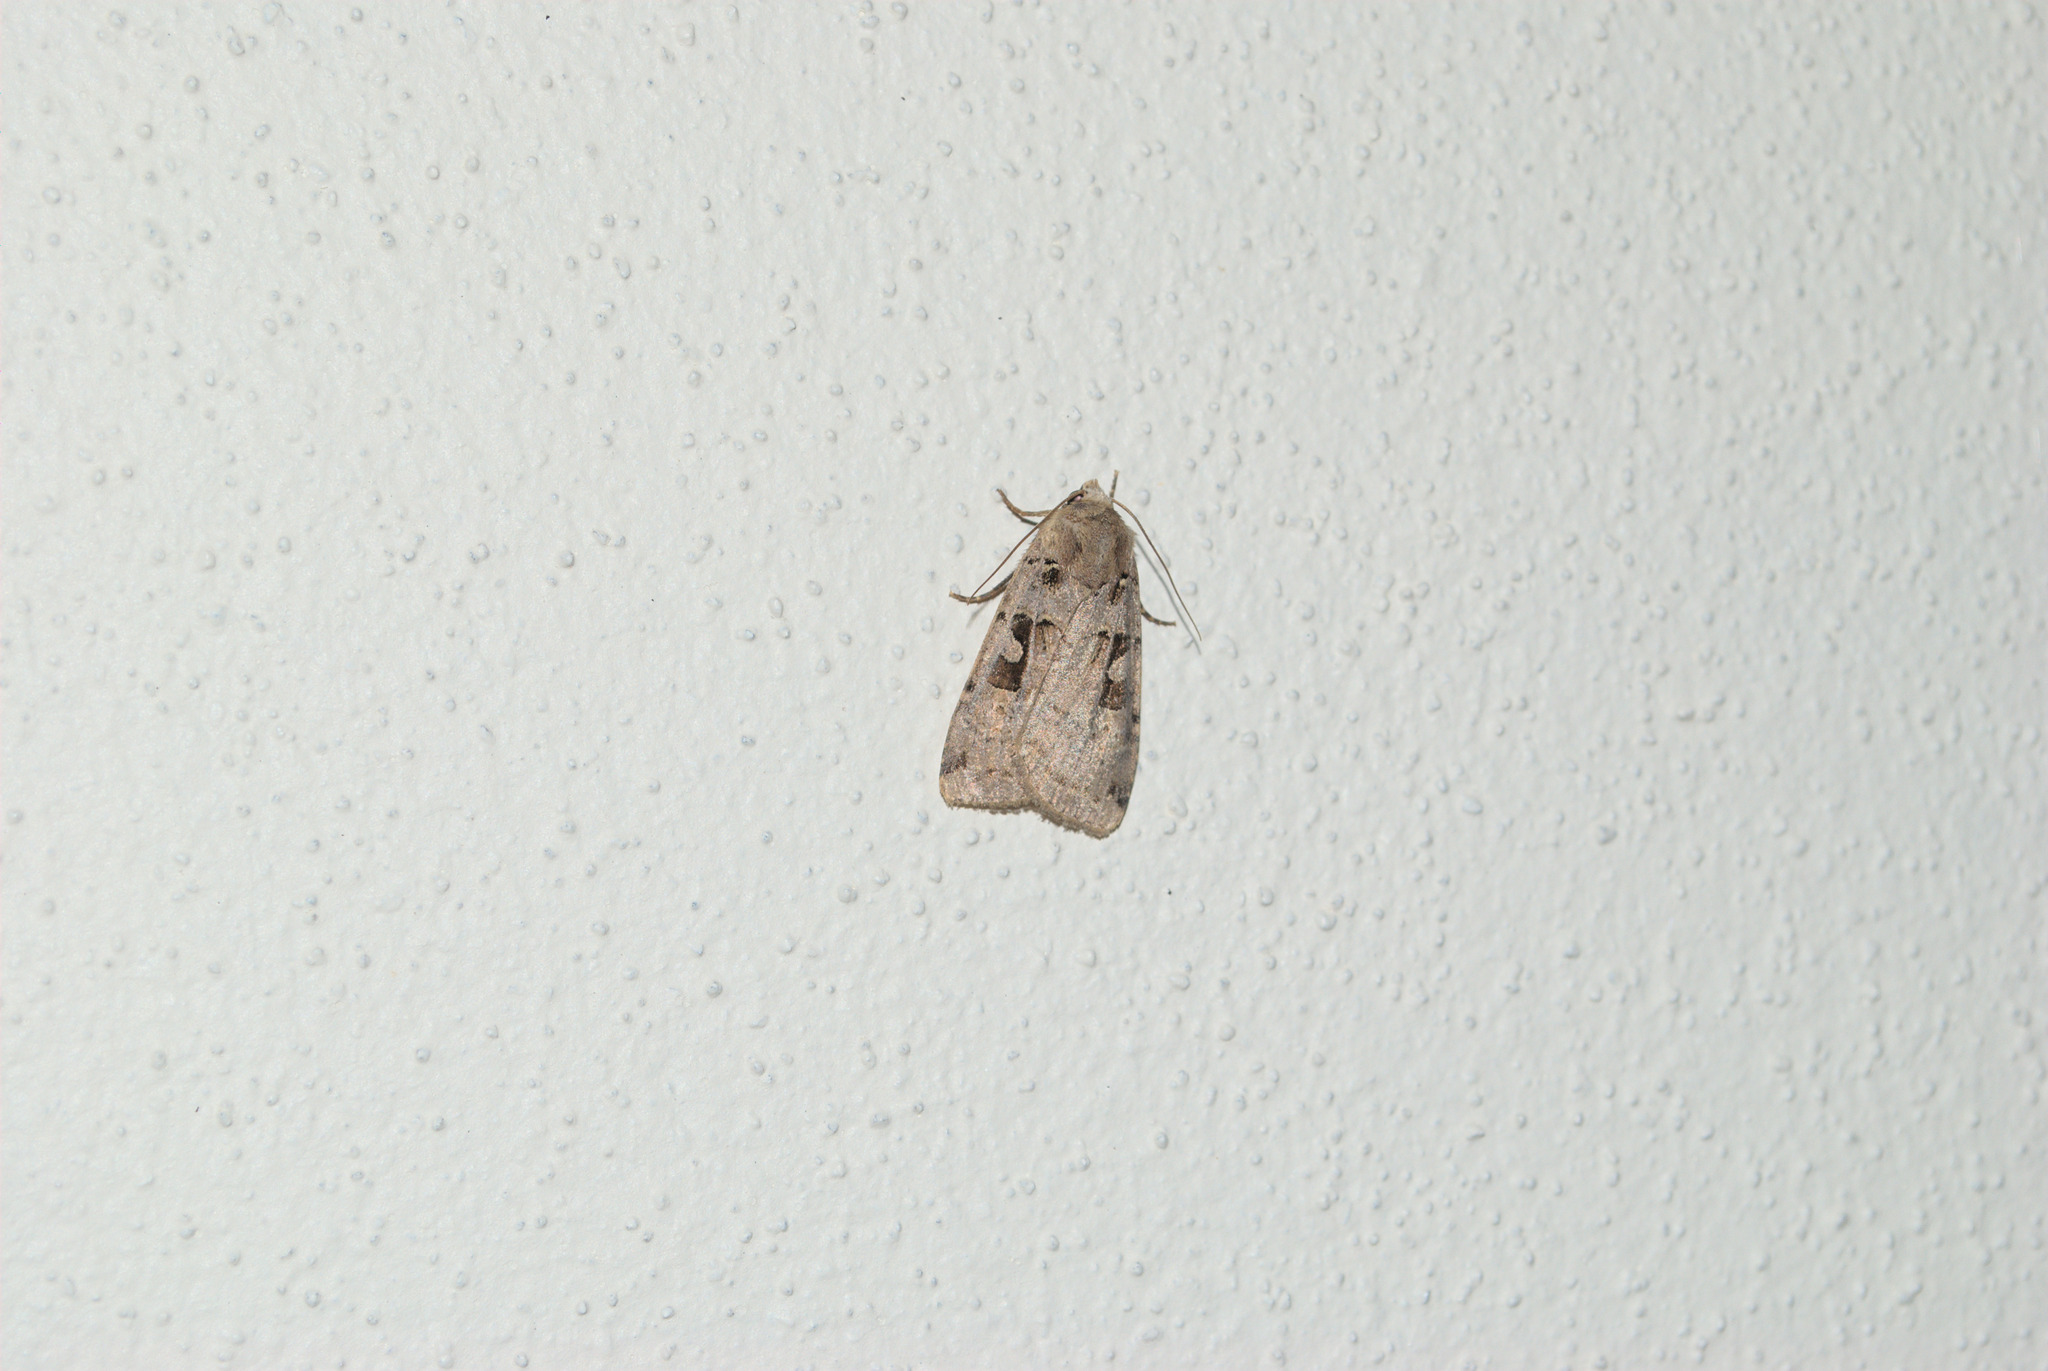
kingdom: Animalia
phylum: Arthropoda
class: Insecta
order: Lepidoptera
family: Noctuidae
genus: Xestia
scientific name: Xestia triangulum
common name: Double square-spot
